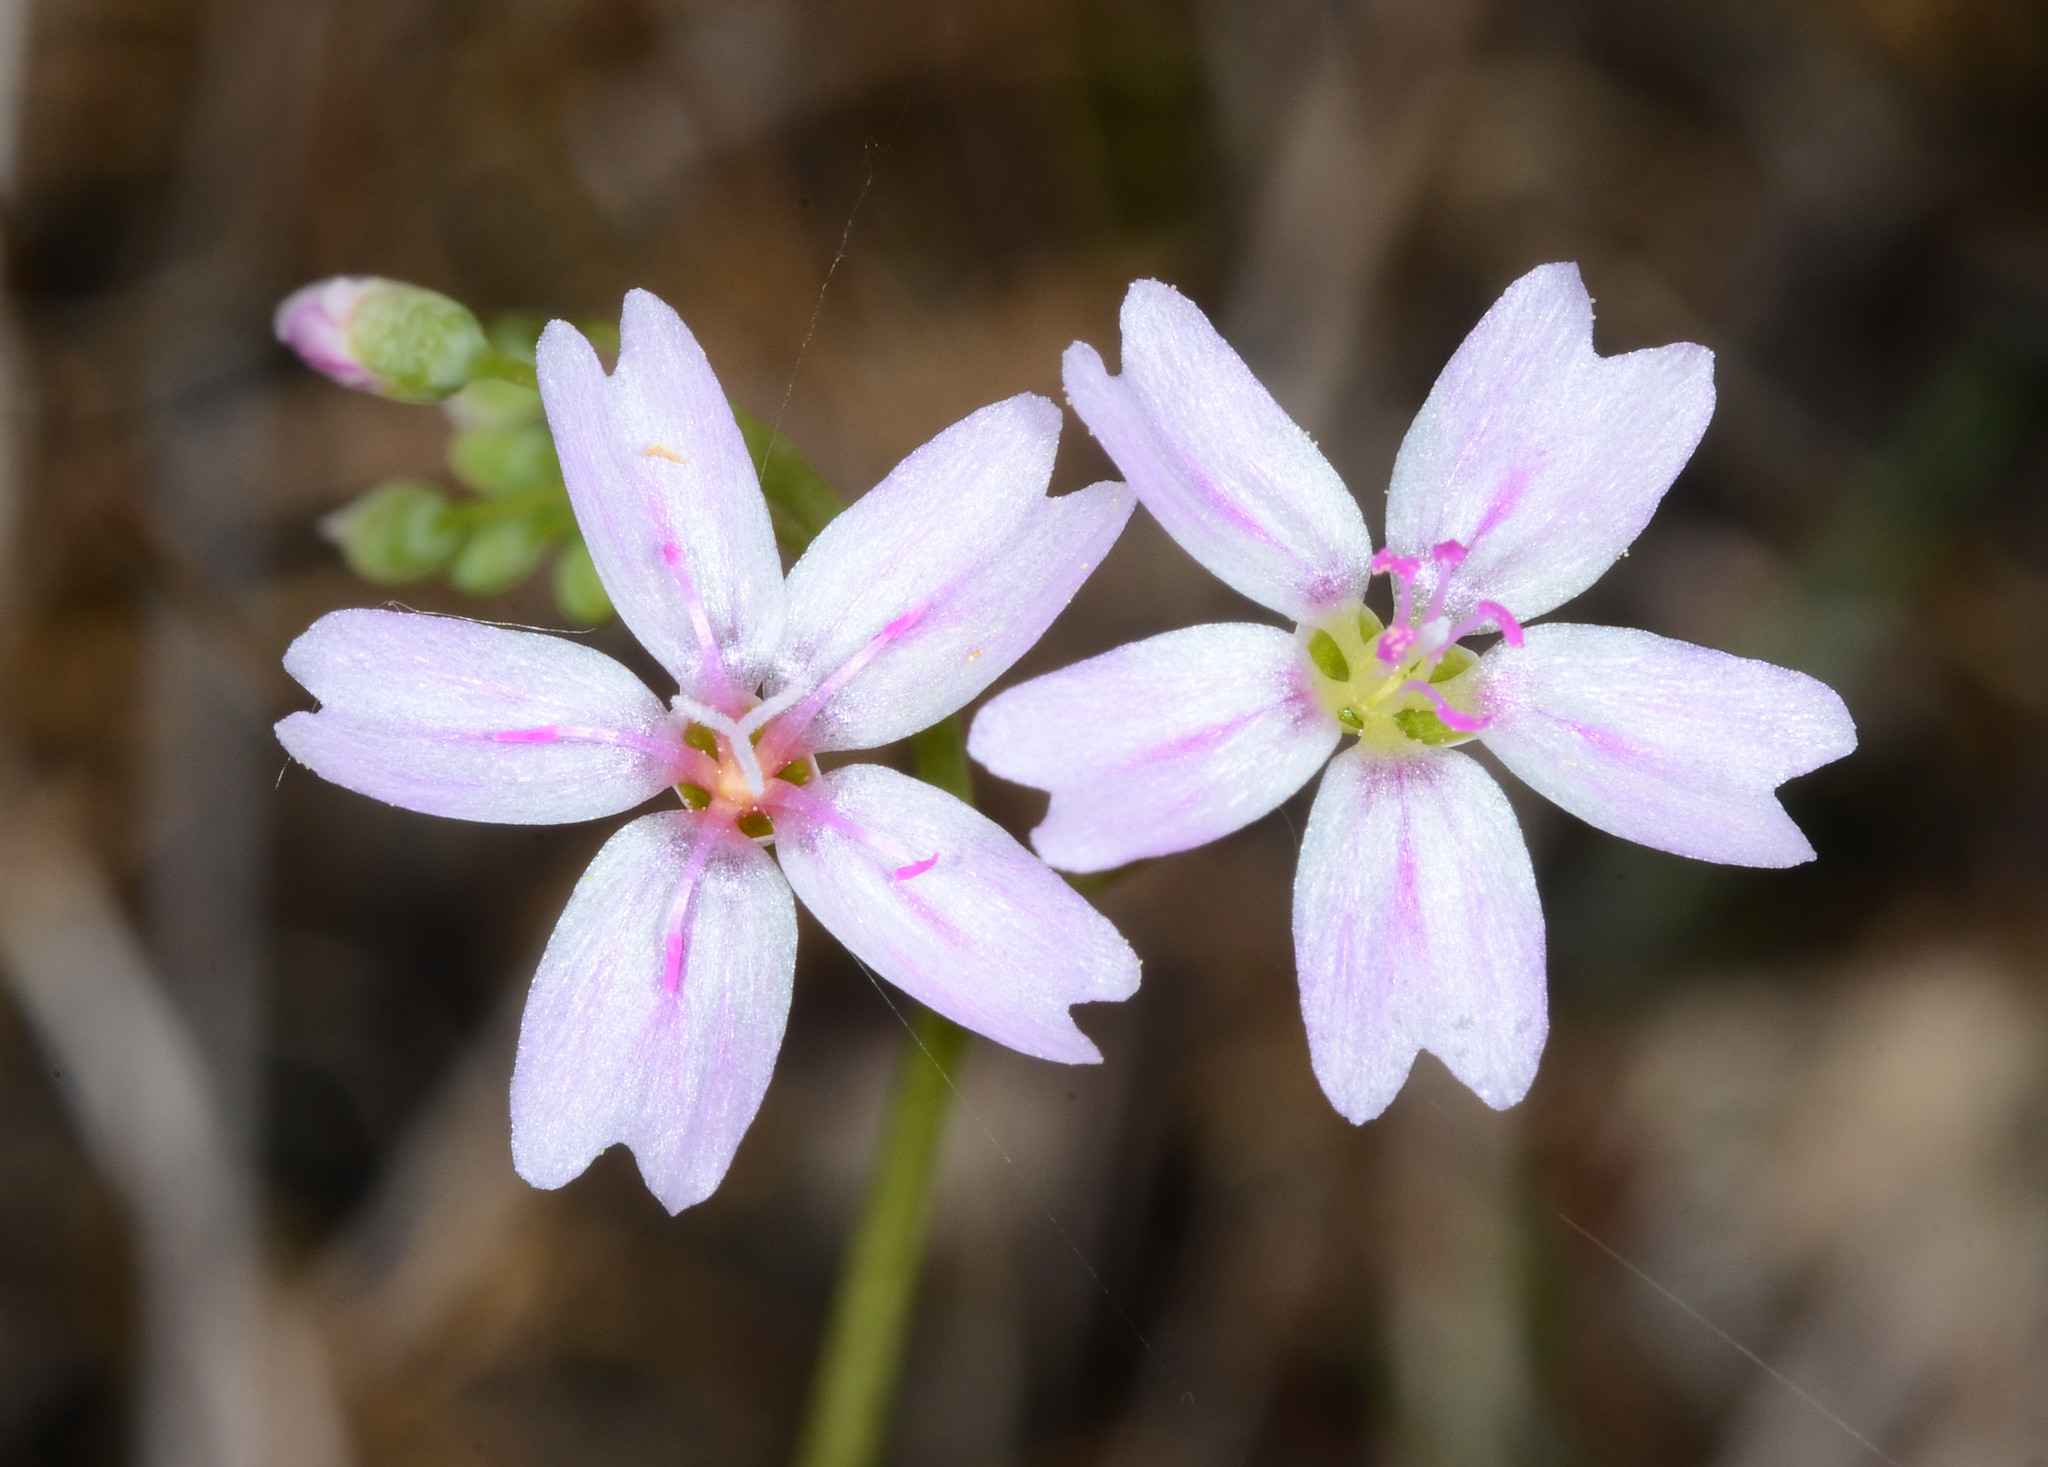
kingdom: Plantae
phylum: Tracheophyta
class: Magnoliopsida
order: Caryophyllales
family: Montiaceae
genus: Claytonia
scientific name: Claytonia gypsophiloides
